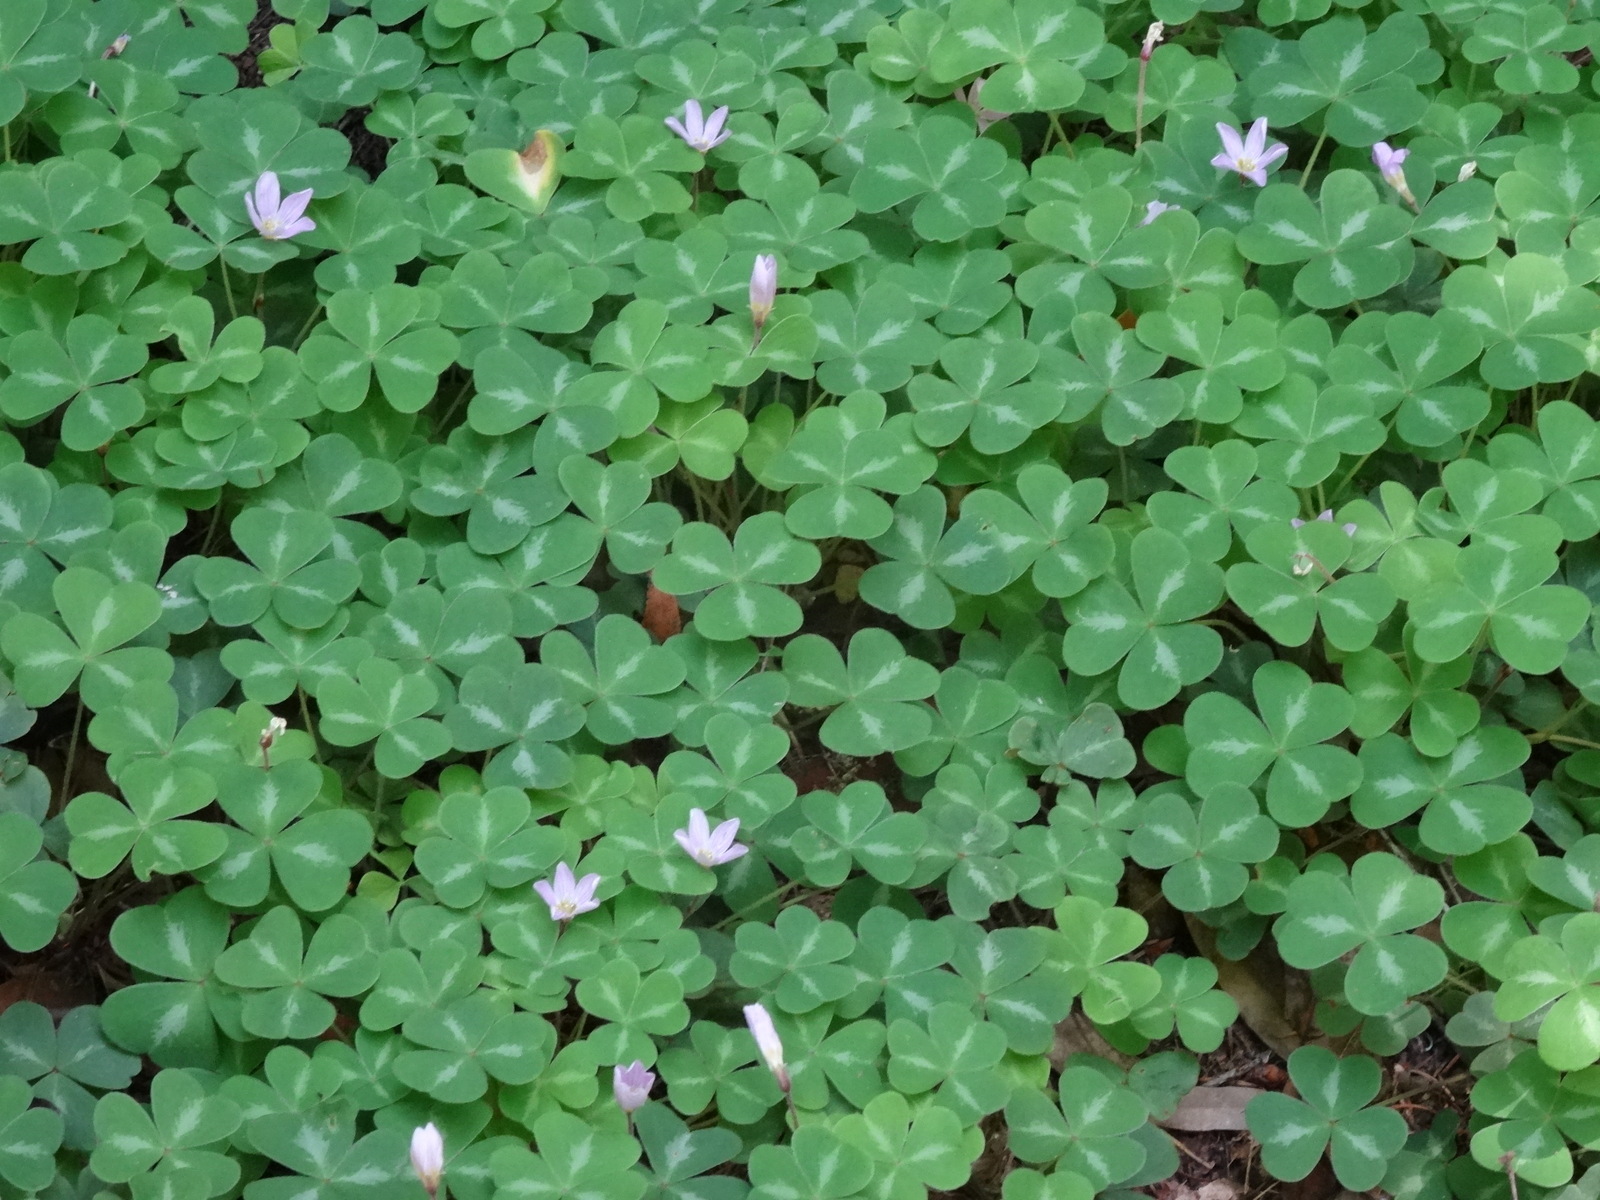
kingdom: Plantae
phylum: Tracheophyta
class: Magnoliopsida
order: Oxalidales
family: Oxalidaceae
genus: Oxalis
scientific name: Oxalis oregana
